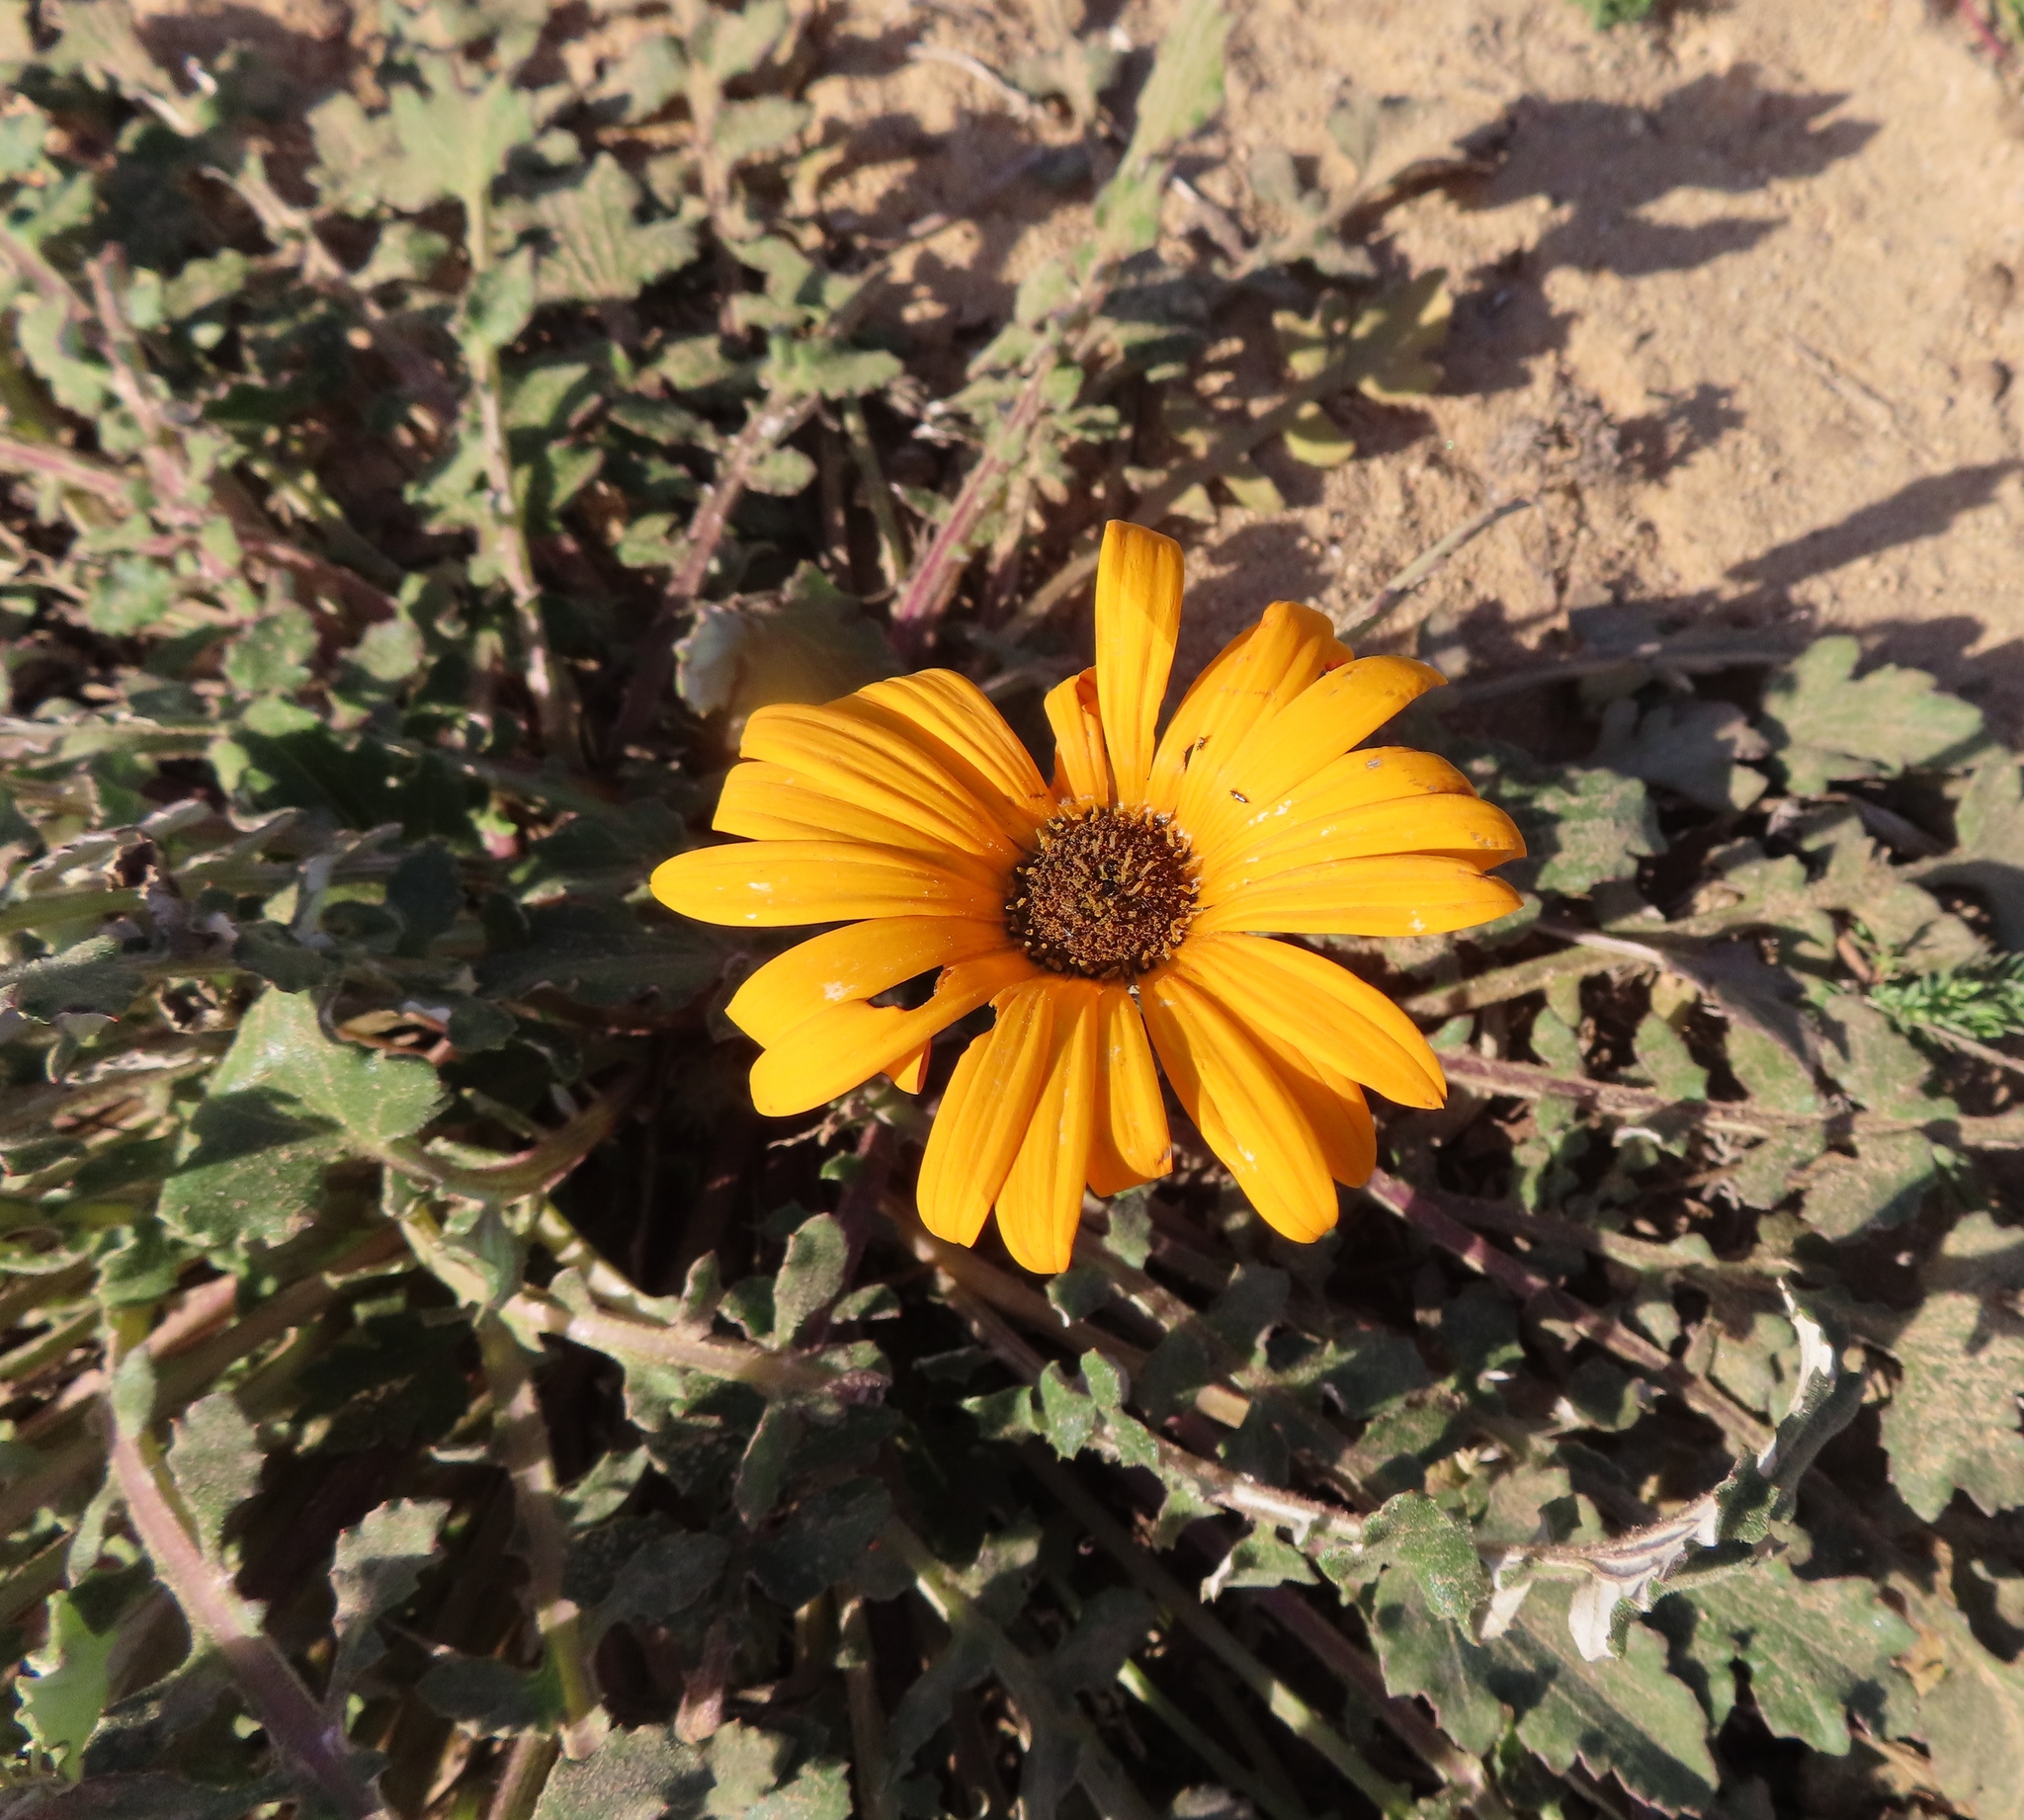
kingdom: Plantae
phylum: Tracheophyta
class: Magnoliopsida
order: Asterales
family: Asteraceae
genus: Arctotis
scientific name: Arctotis acaulis
